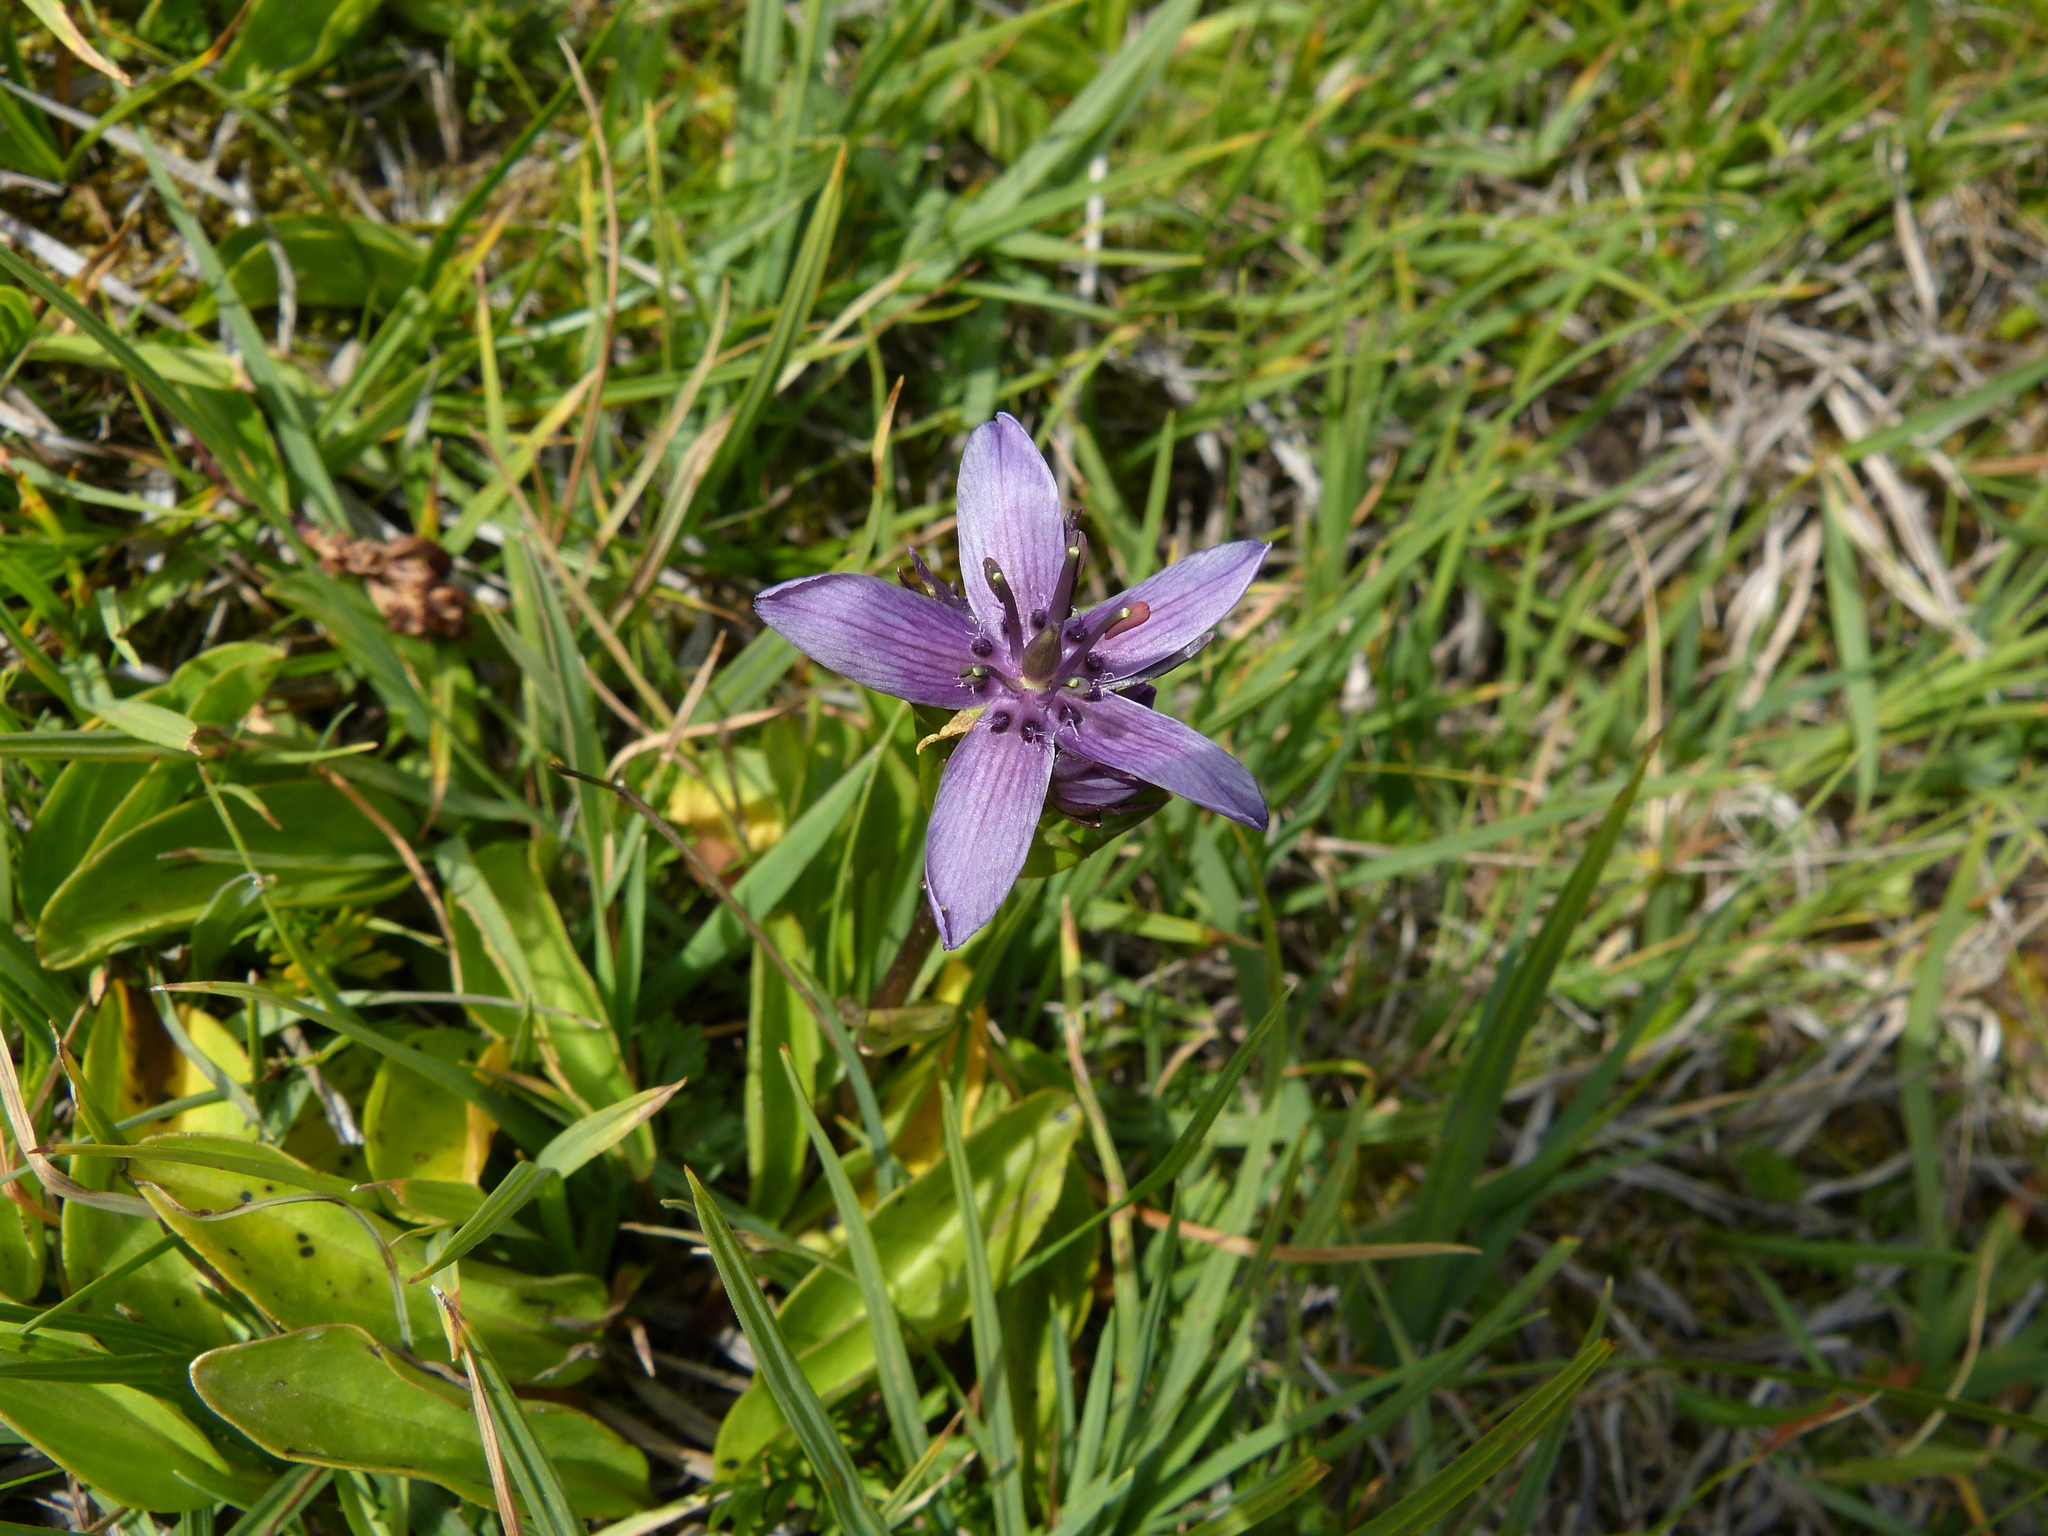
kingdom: Plantae
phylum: Tracheophyta
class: Magnoliopsida
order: Gentianales
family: Gentianaceae
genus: Swertia
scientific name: Swertia perennis
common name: Alpine bog swertia
